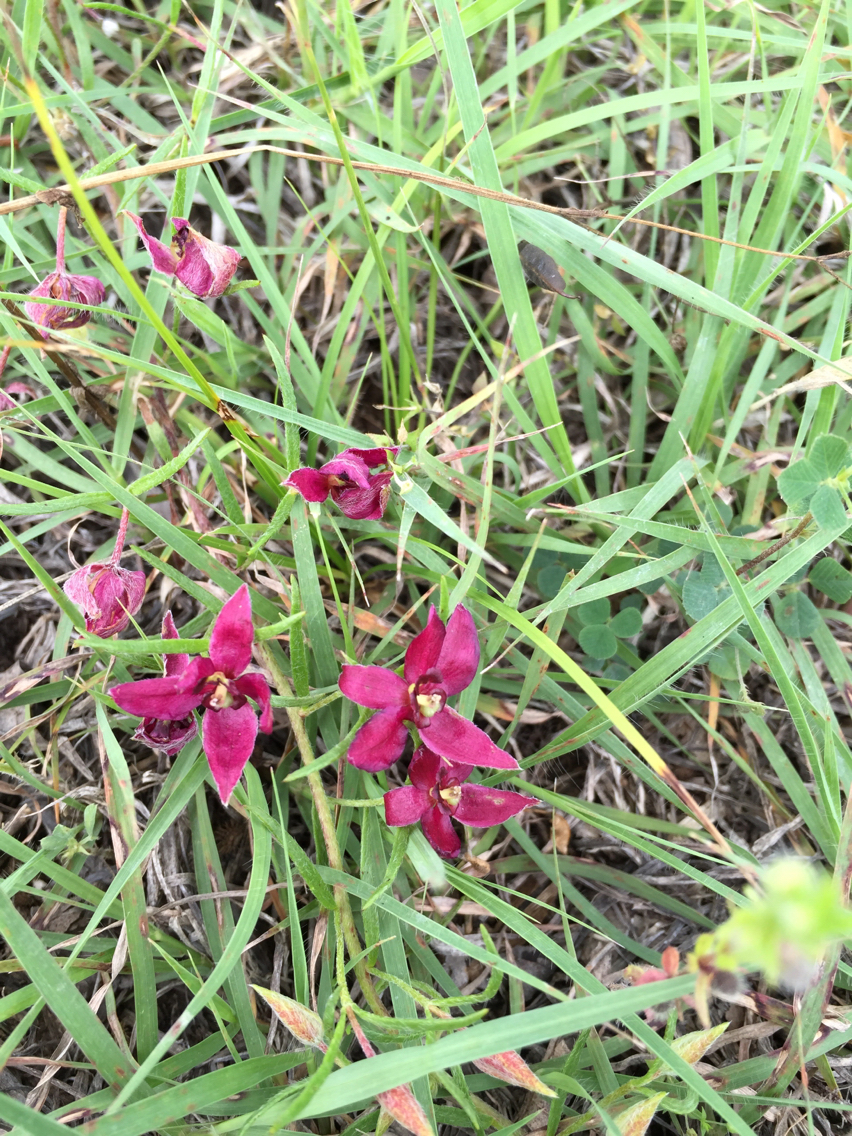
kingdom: Plantae
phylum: Tracheophyta
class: Magnoliopsida
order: Zygophyllales
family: Krameriaceae
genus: Krameria
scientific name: Krameria lanceolata
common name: Ratany
